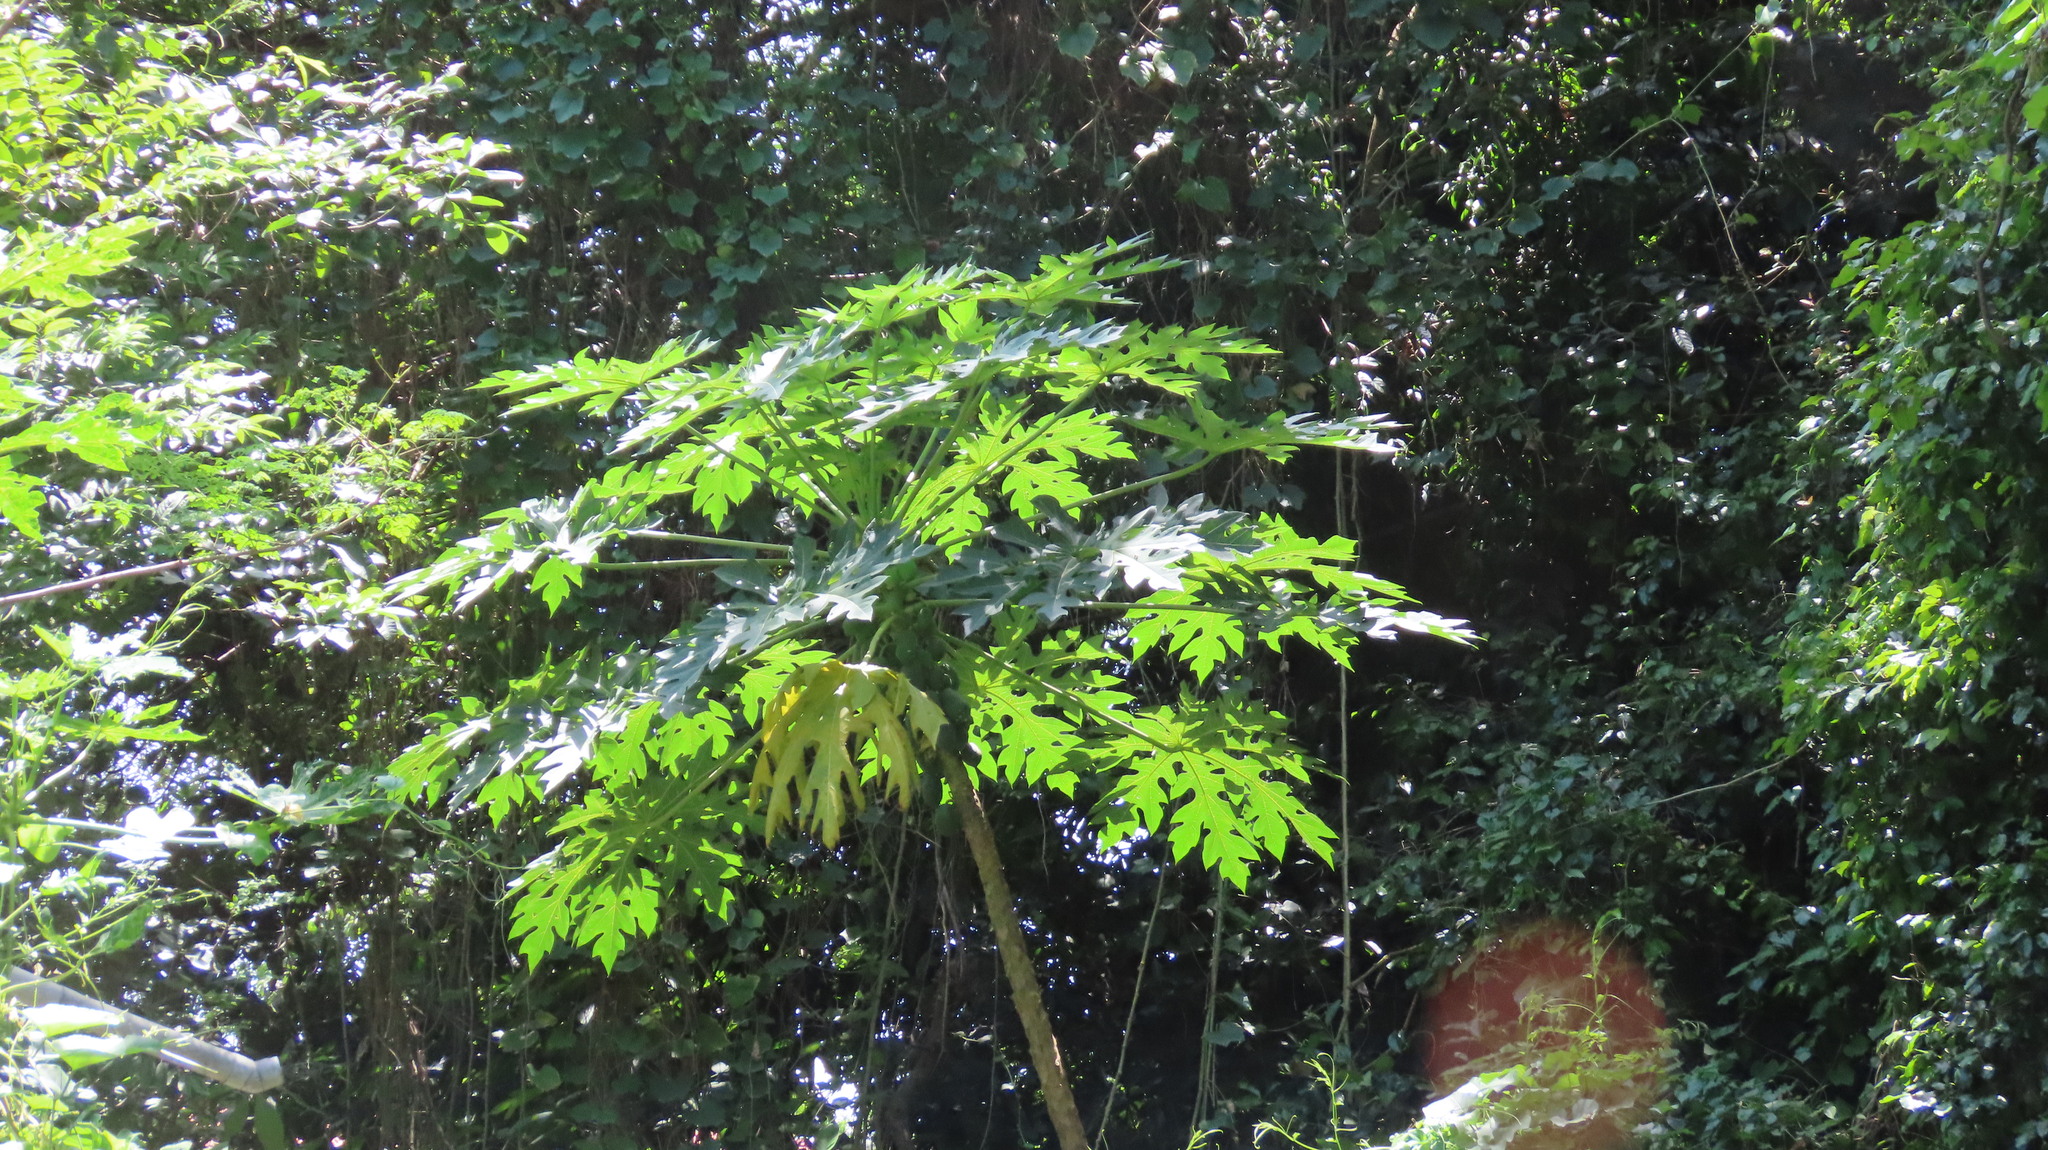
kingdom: Plantae
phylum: Tracheophyta
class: Magnoliopsida
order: Brassicales
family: Caricaceae
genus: Carica
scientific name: Carica papaya
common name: Papaya
